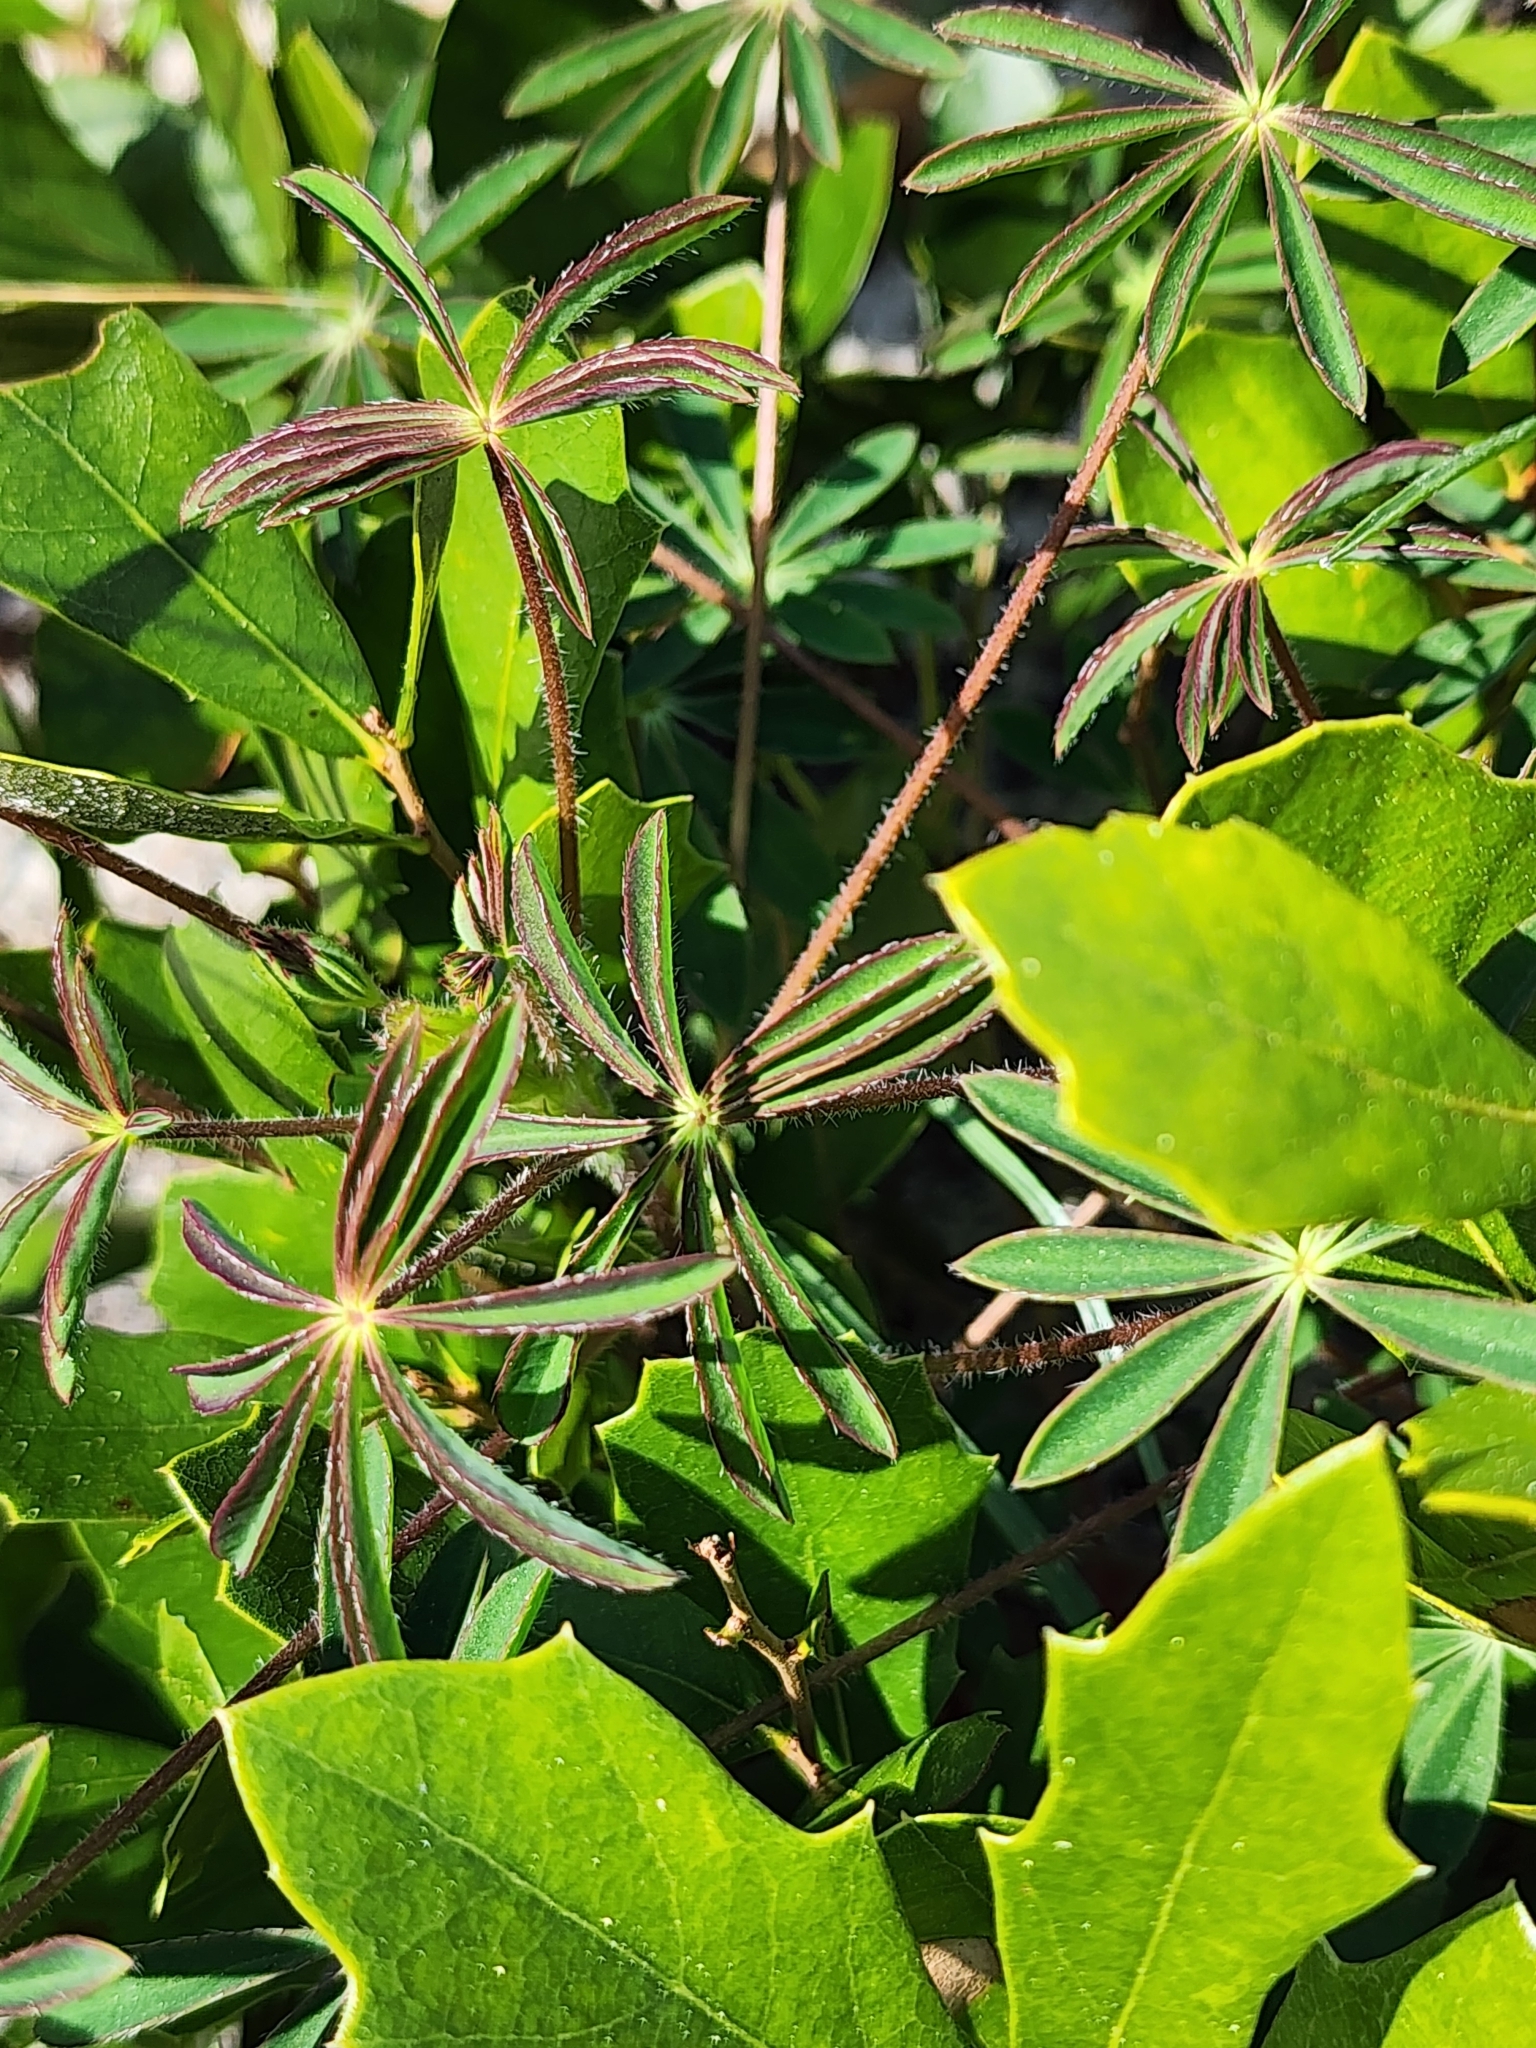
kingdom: Plantae
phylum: Tracheophyta
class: Magnoliopsida
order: Fabales
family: Fabaceae
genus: Lupinus
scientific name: Lupinus perennis
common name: Sundial lupine
